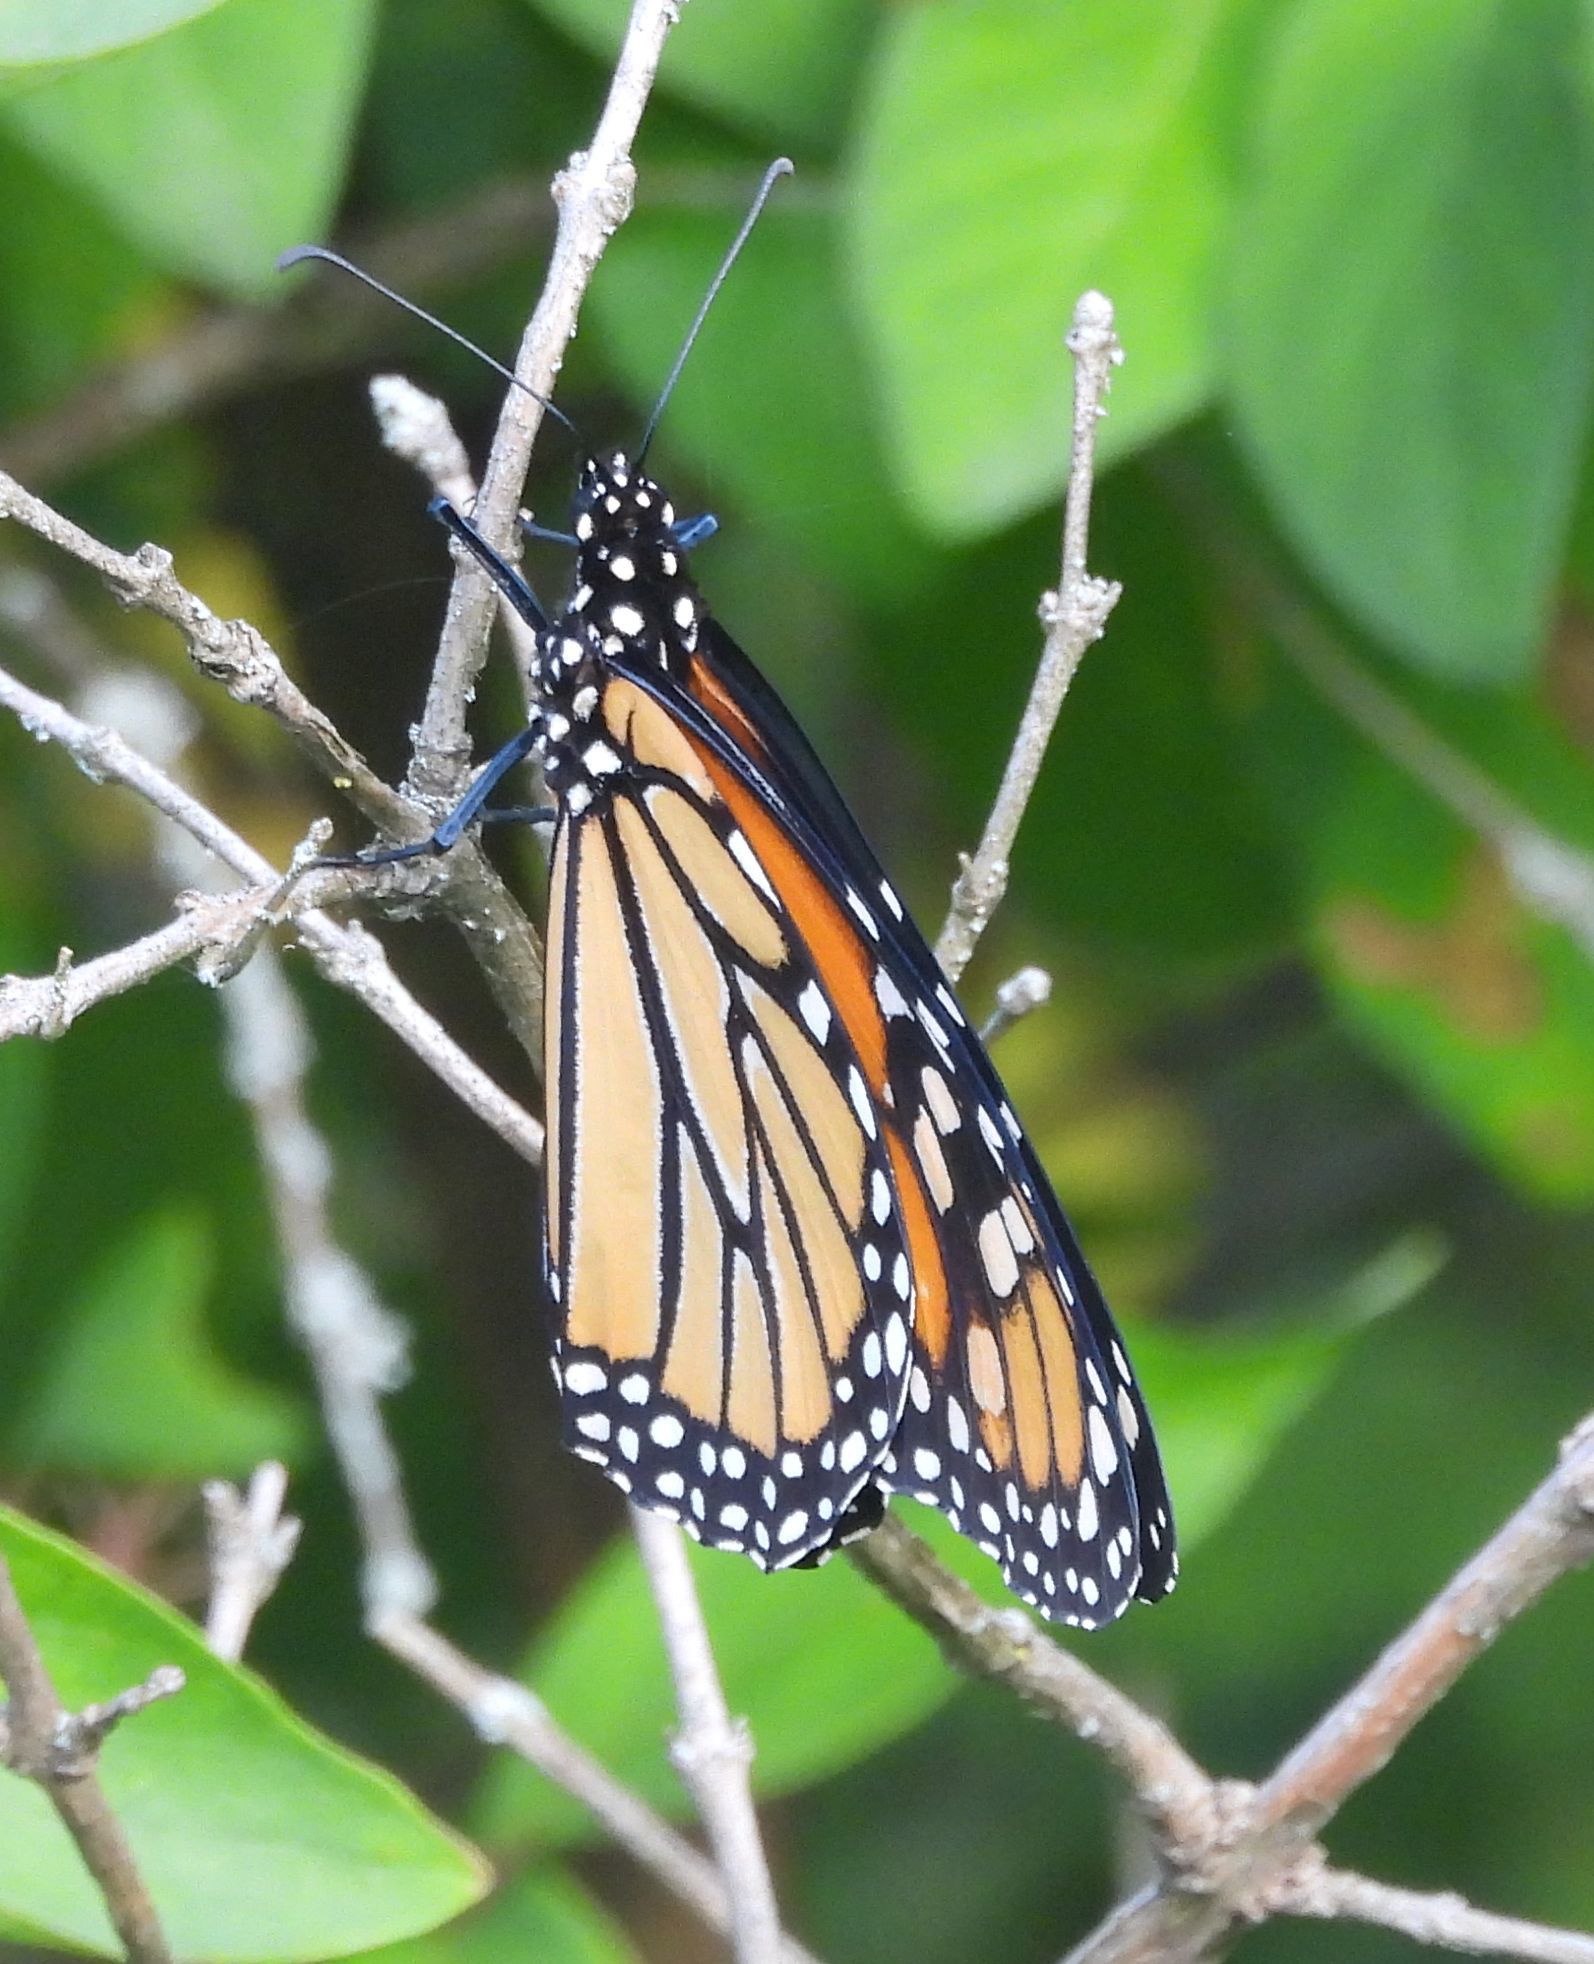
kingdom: Animalia
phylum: Arthropoda
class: Insecta
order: Lepidoptera
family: Nymphalidae
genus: Danaus
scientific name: Danaus plexippus
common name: Monarch
